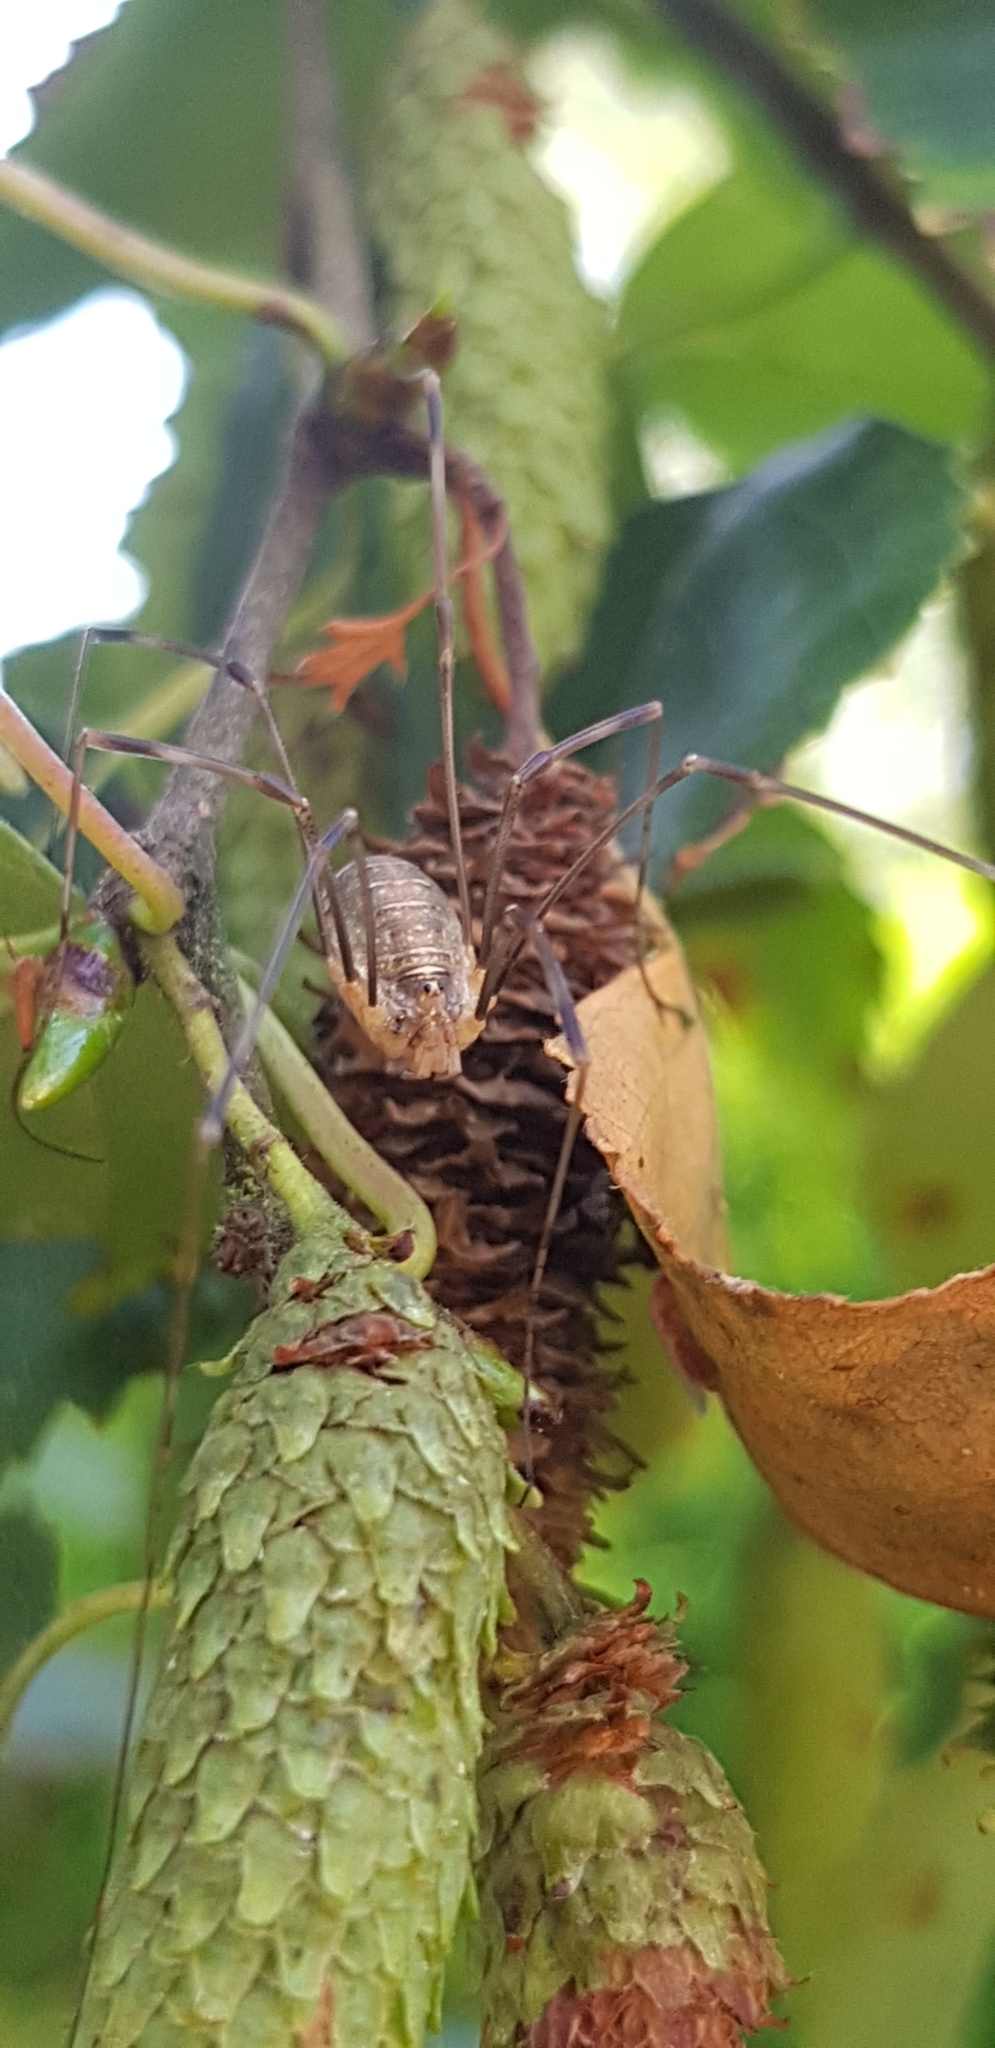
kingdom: Animalia
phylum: Arthropoda
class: Arachnida
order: Opiliones
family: Phalangiidae
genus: Opilio
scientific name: Opilio canestrinii
